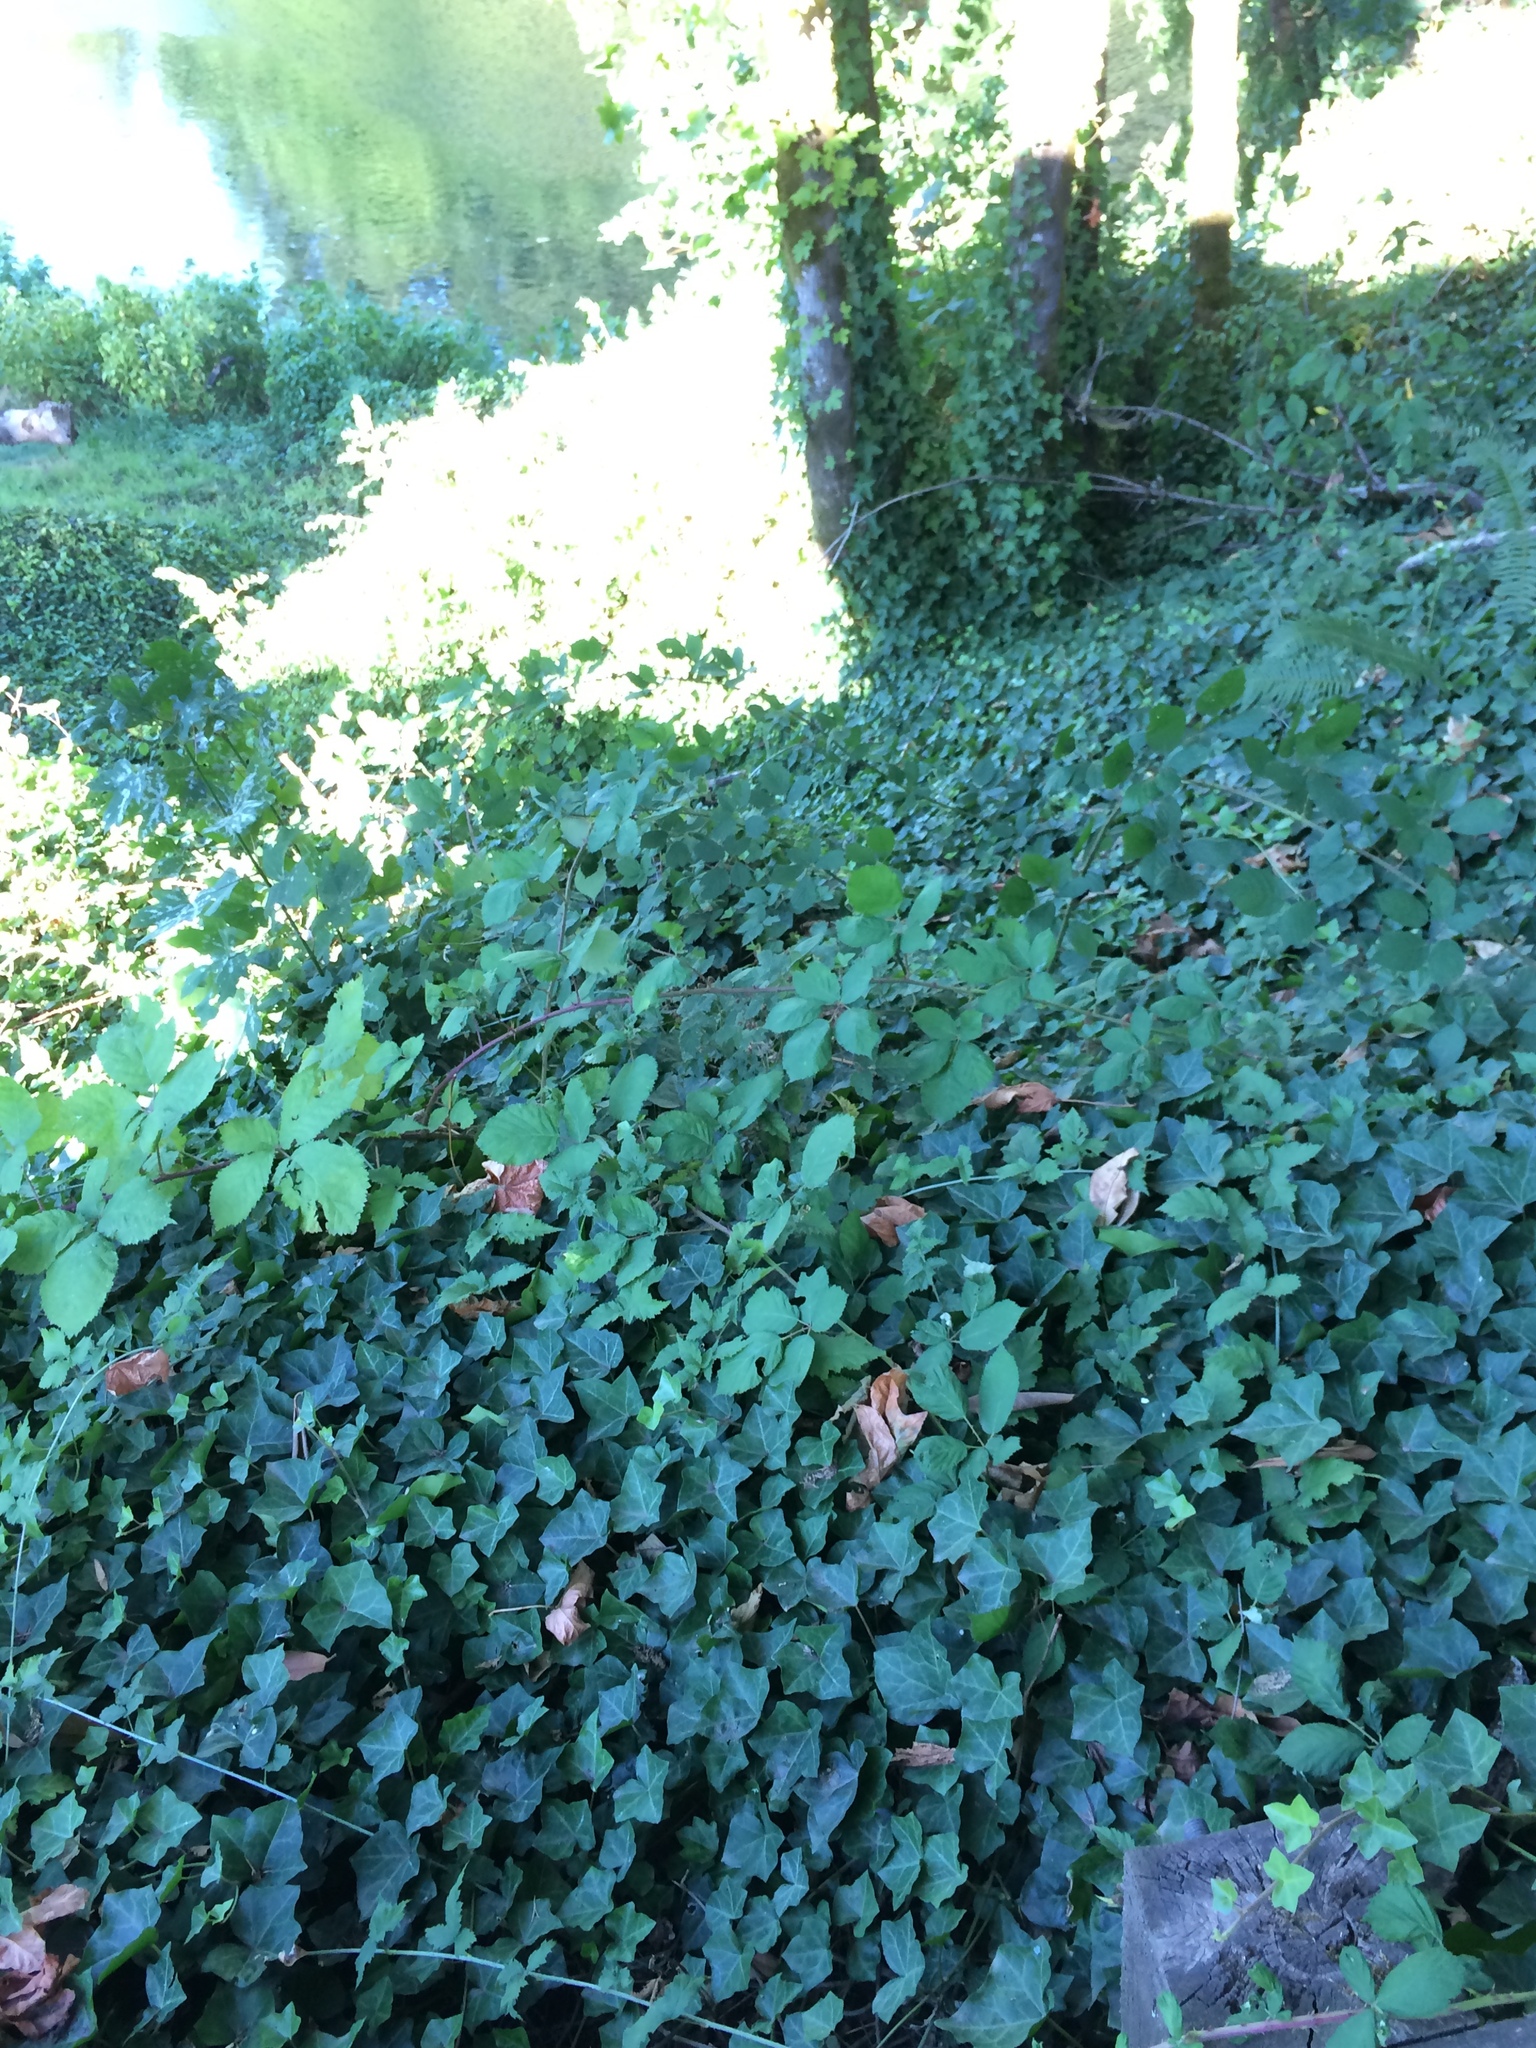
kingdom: Plantae
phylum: Tracheophyta
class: Magnoliopsida
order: Apiales
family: Araliaceae
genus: Hedera
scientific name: Hedera helix
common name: Ivy
